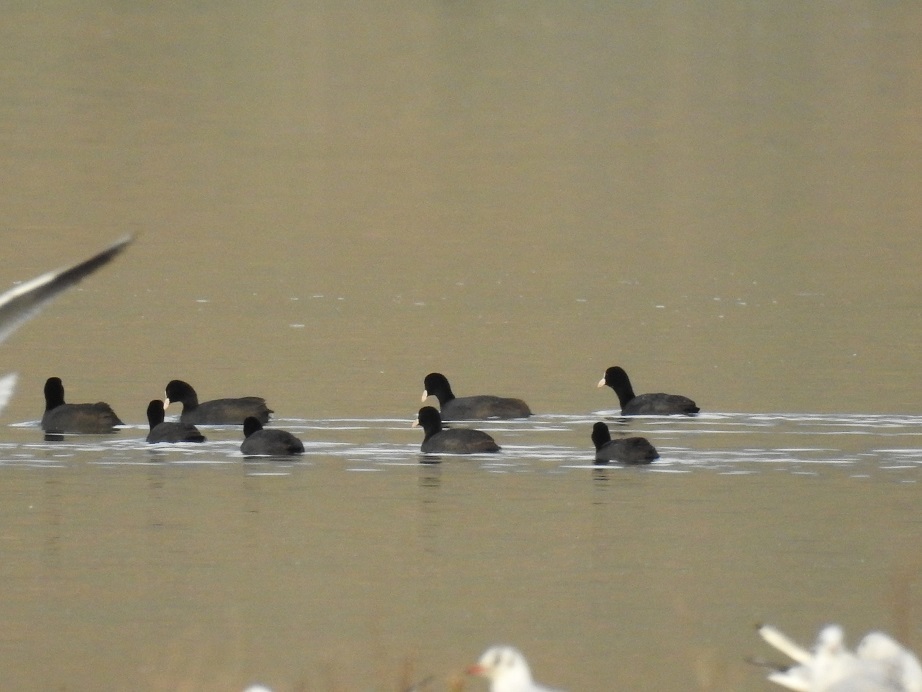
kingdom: Animalia
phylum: Chordata
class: Aves
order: Gruiformes
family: Rallidae
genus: Fulica
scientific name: Fulica atra
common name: Eurasian coot
